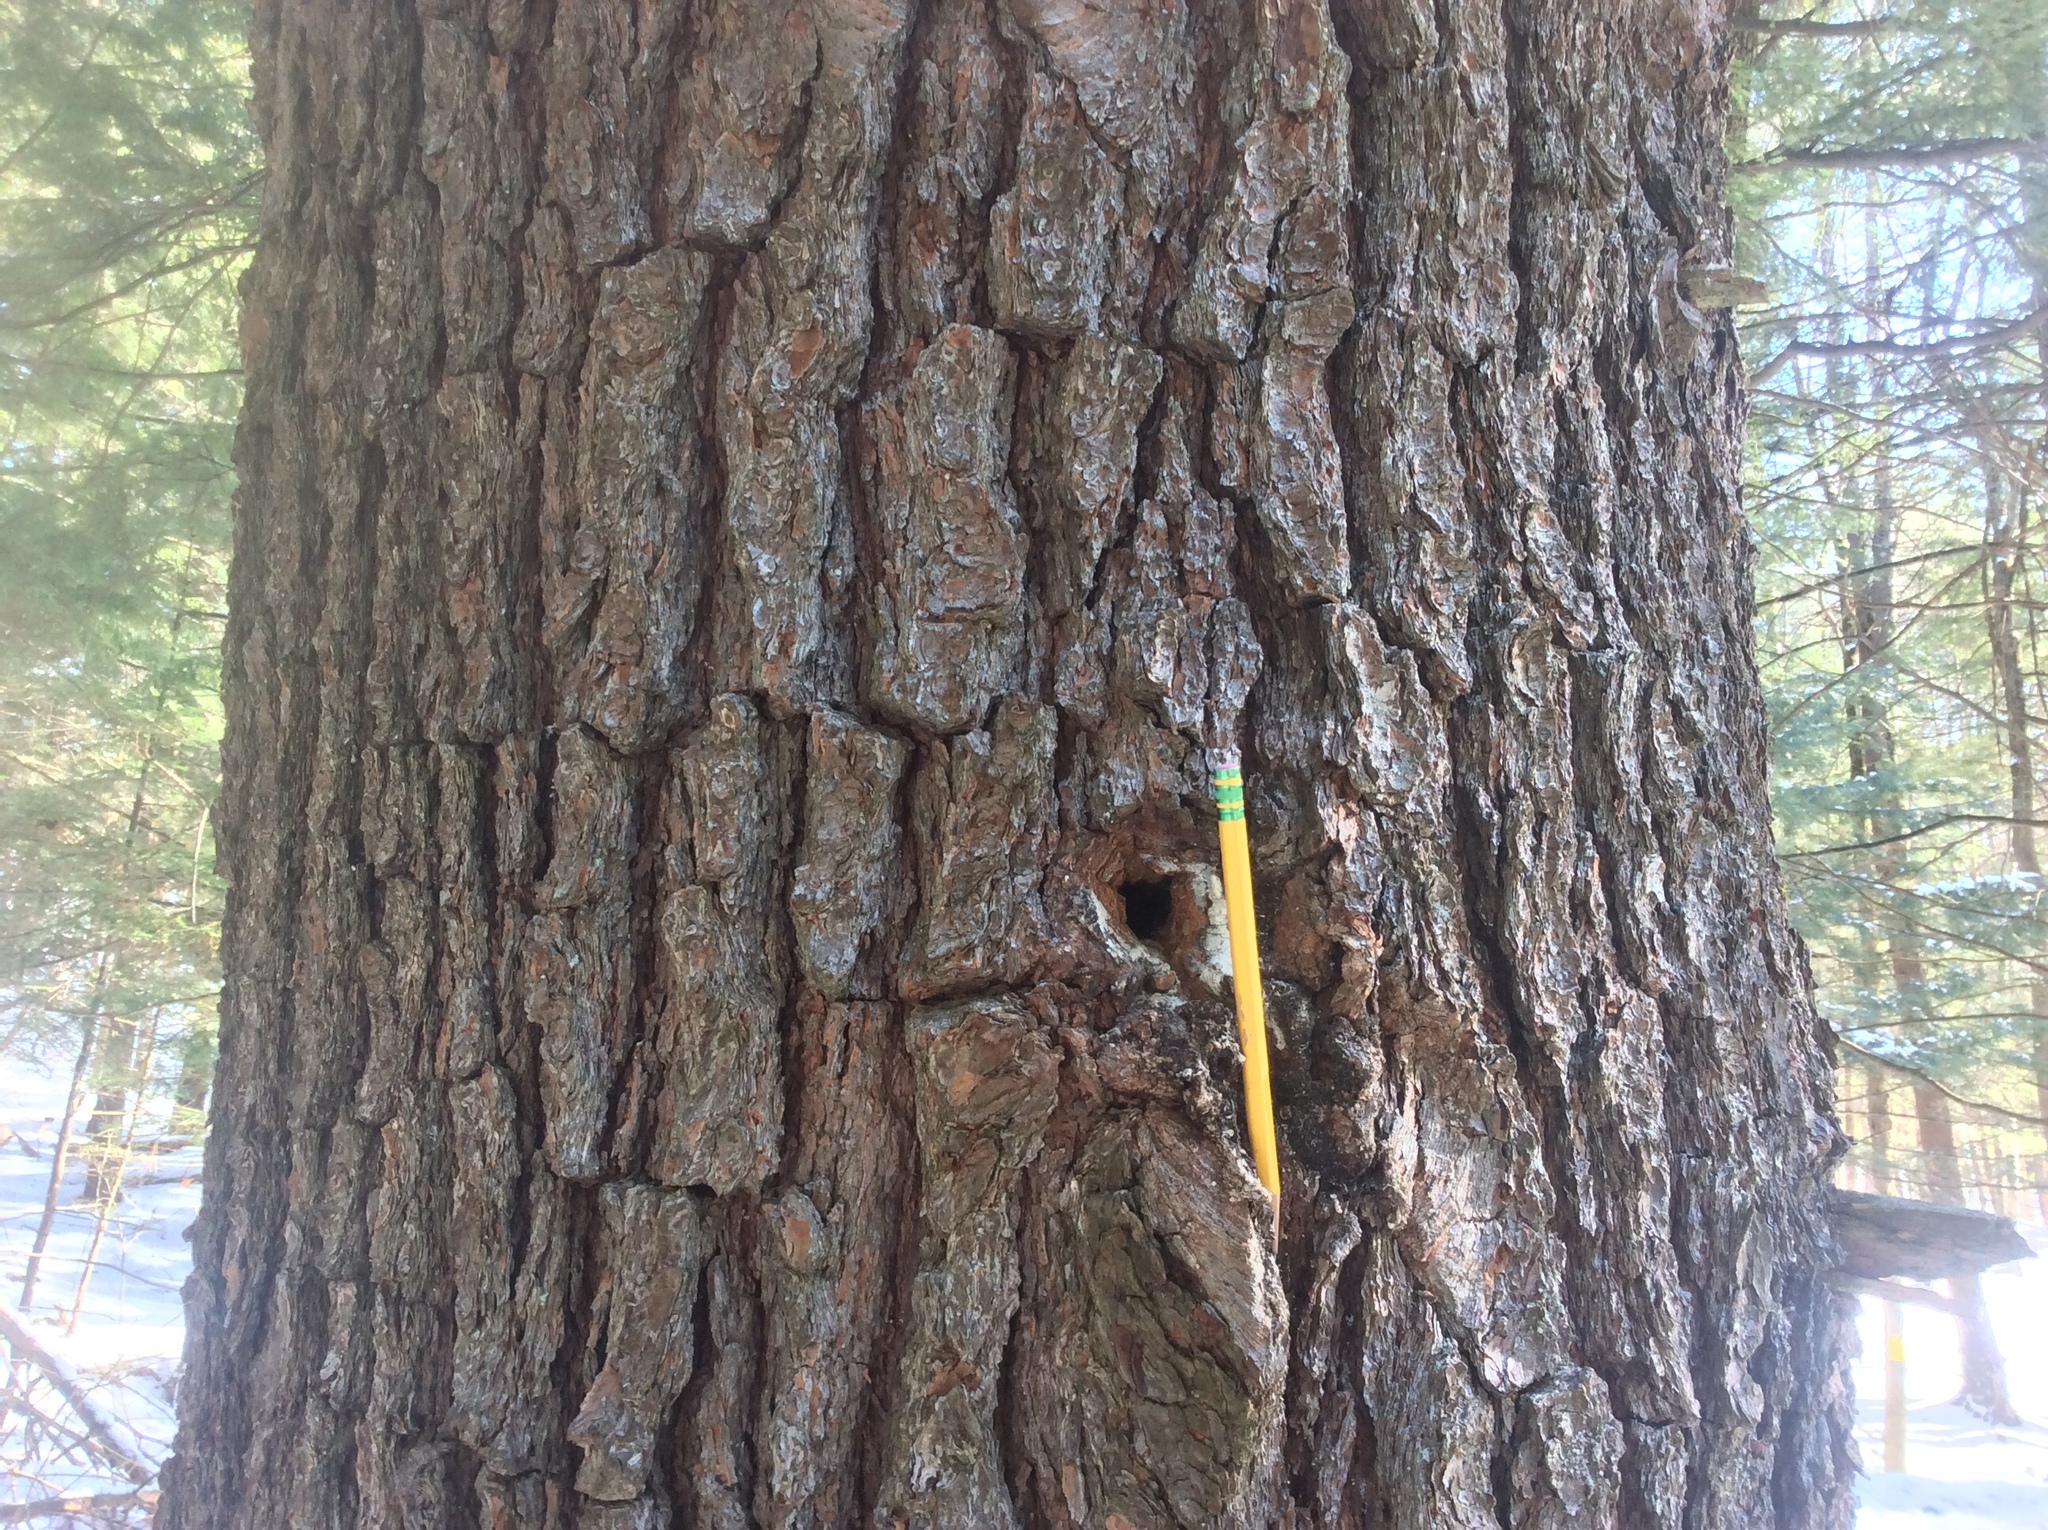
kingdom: Plantae
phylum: Tracheophyta
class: Pinopsida
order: Pinales
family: Pinaceae
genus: Pinus
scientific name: Pinus strobus
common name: Weymouth pine
